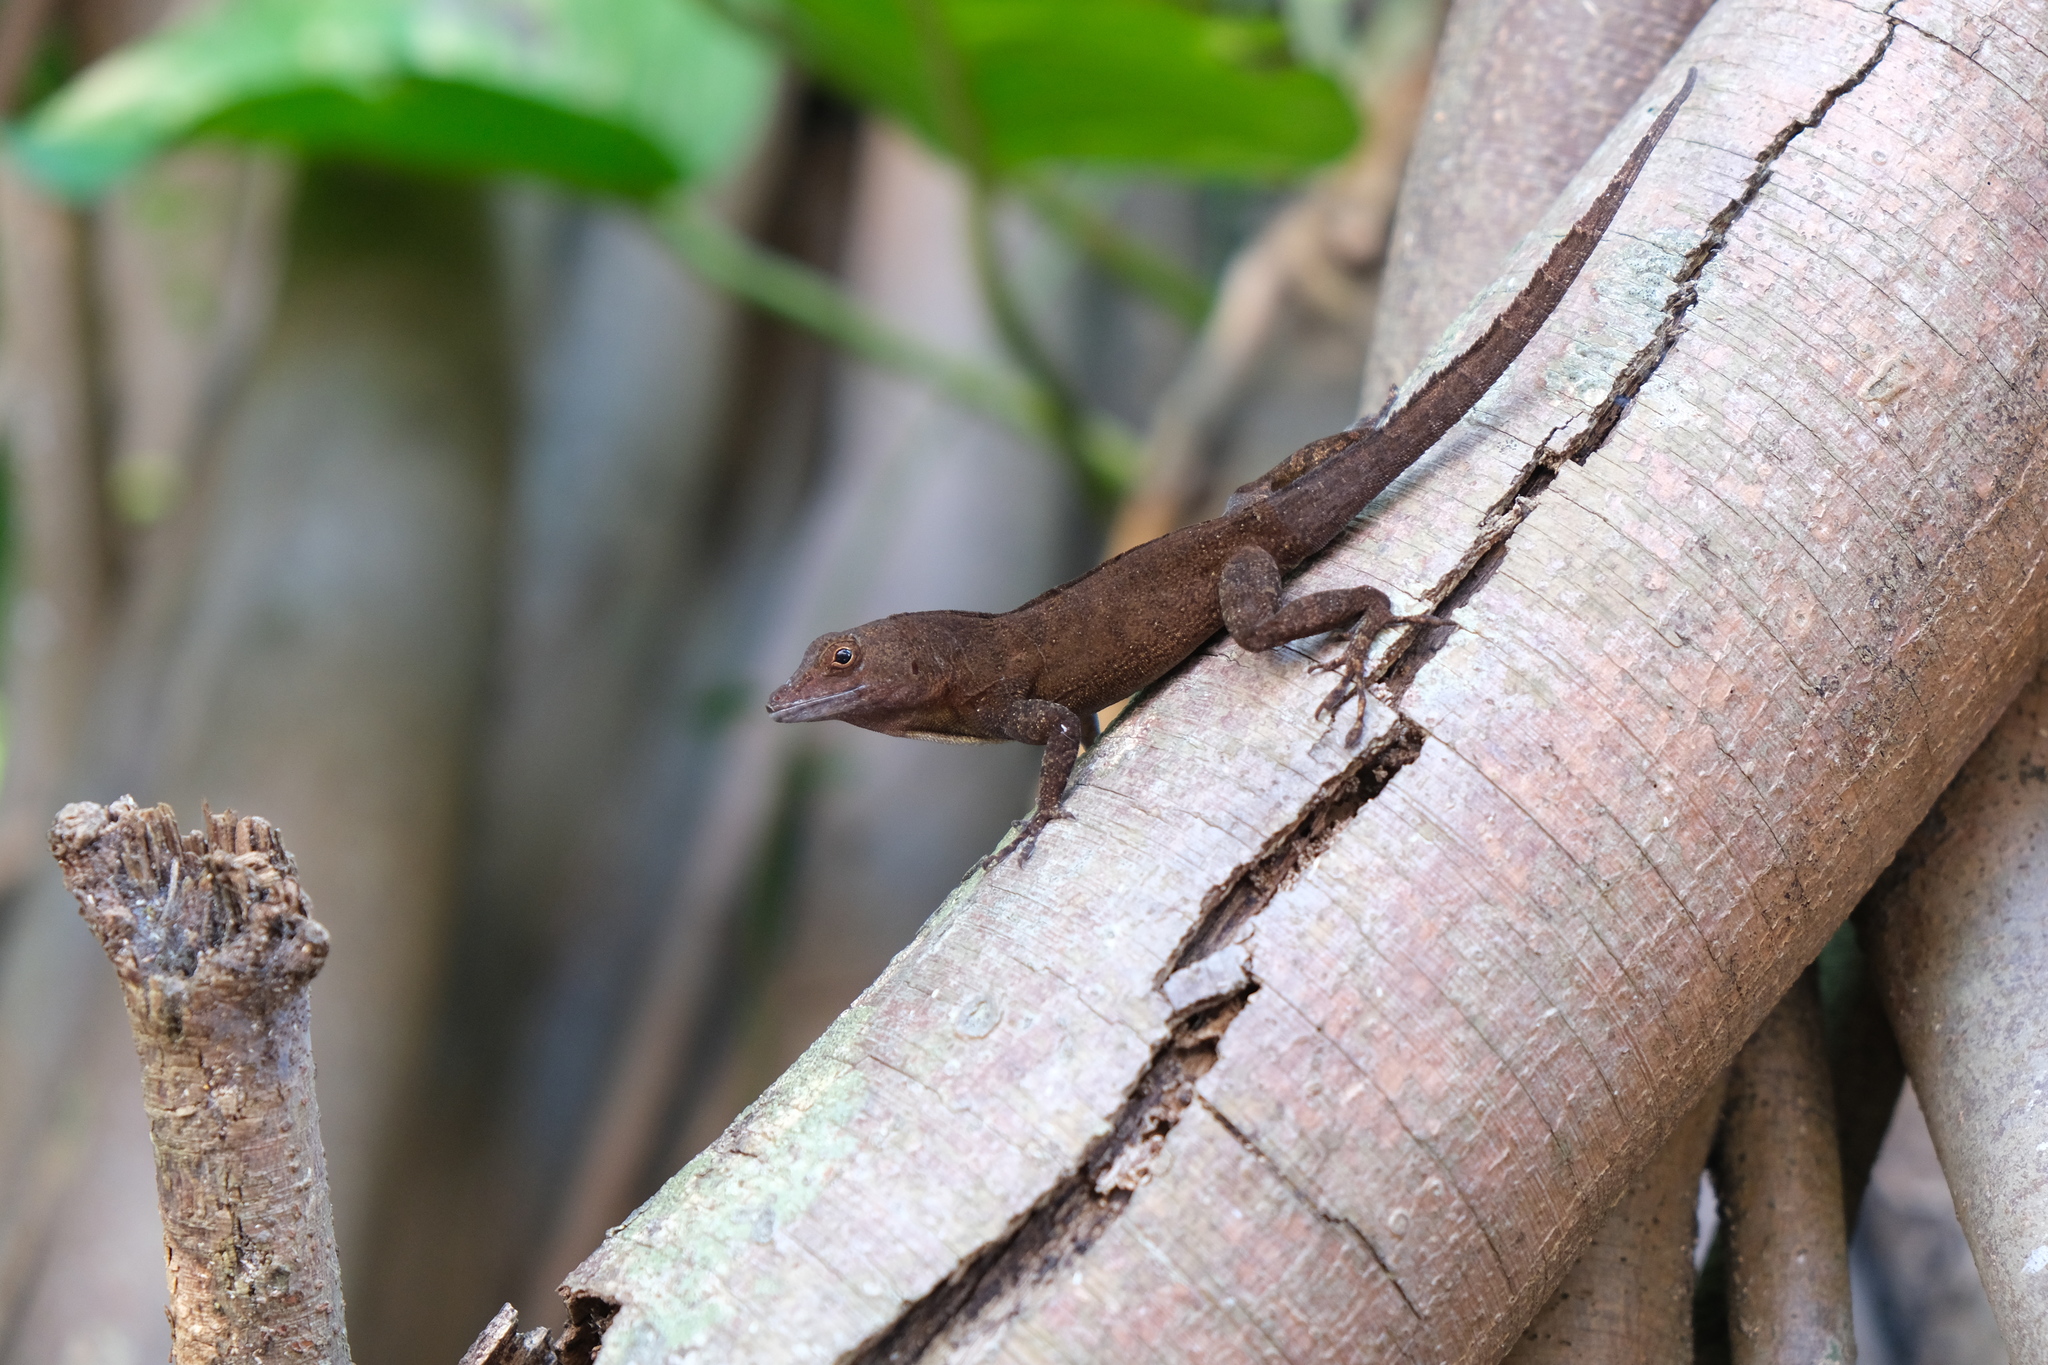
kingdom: Animalia
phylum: Chordata
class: Squamata
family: Dactyloidae
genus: Anolis
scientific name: Anolis cristatellus
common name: Crested anole
